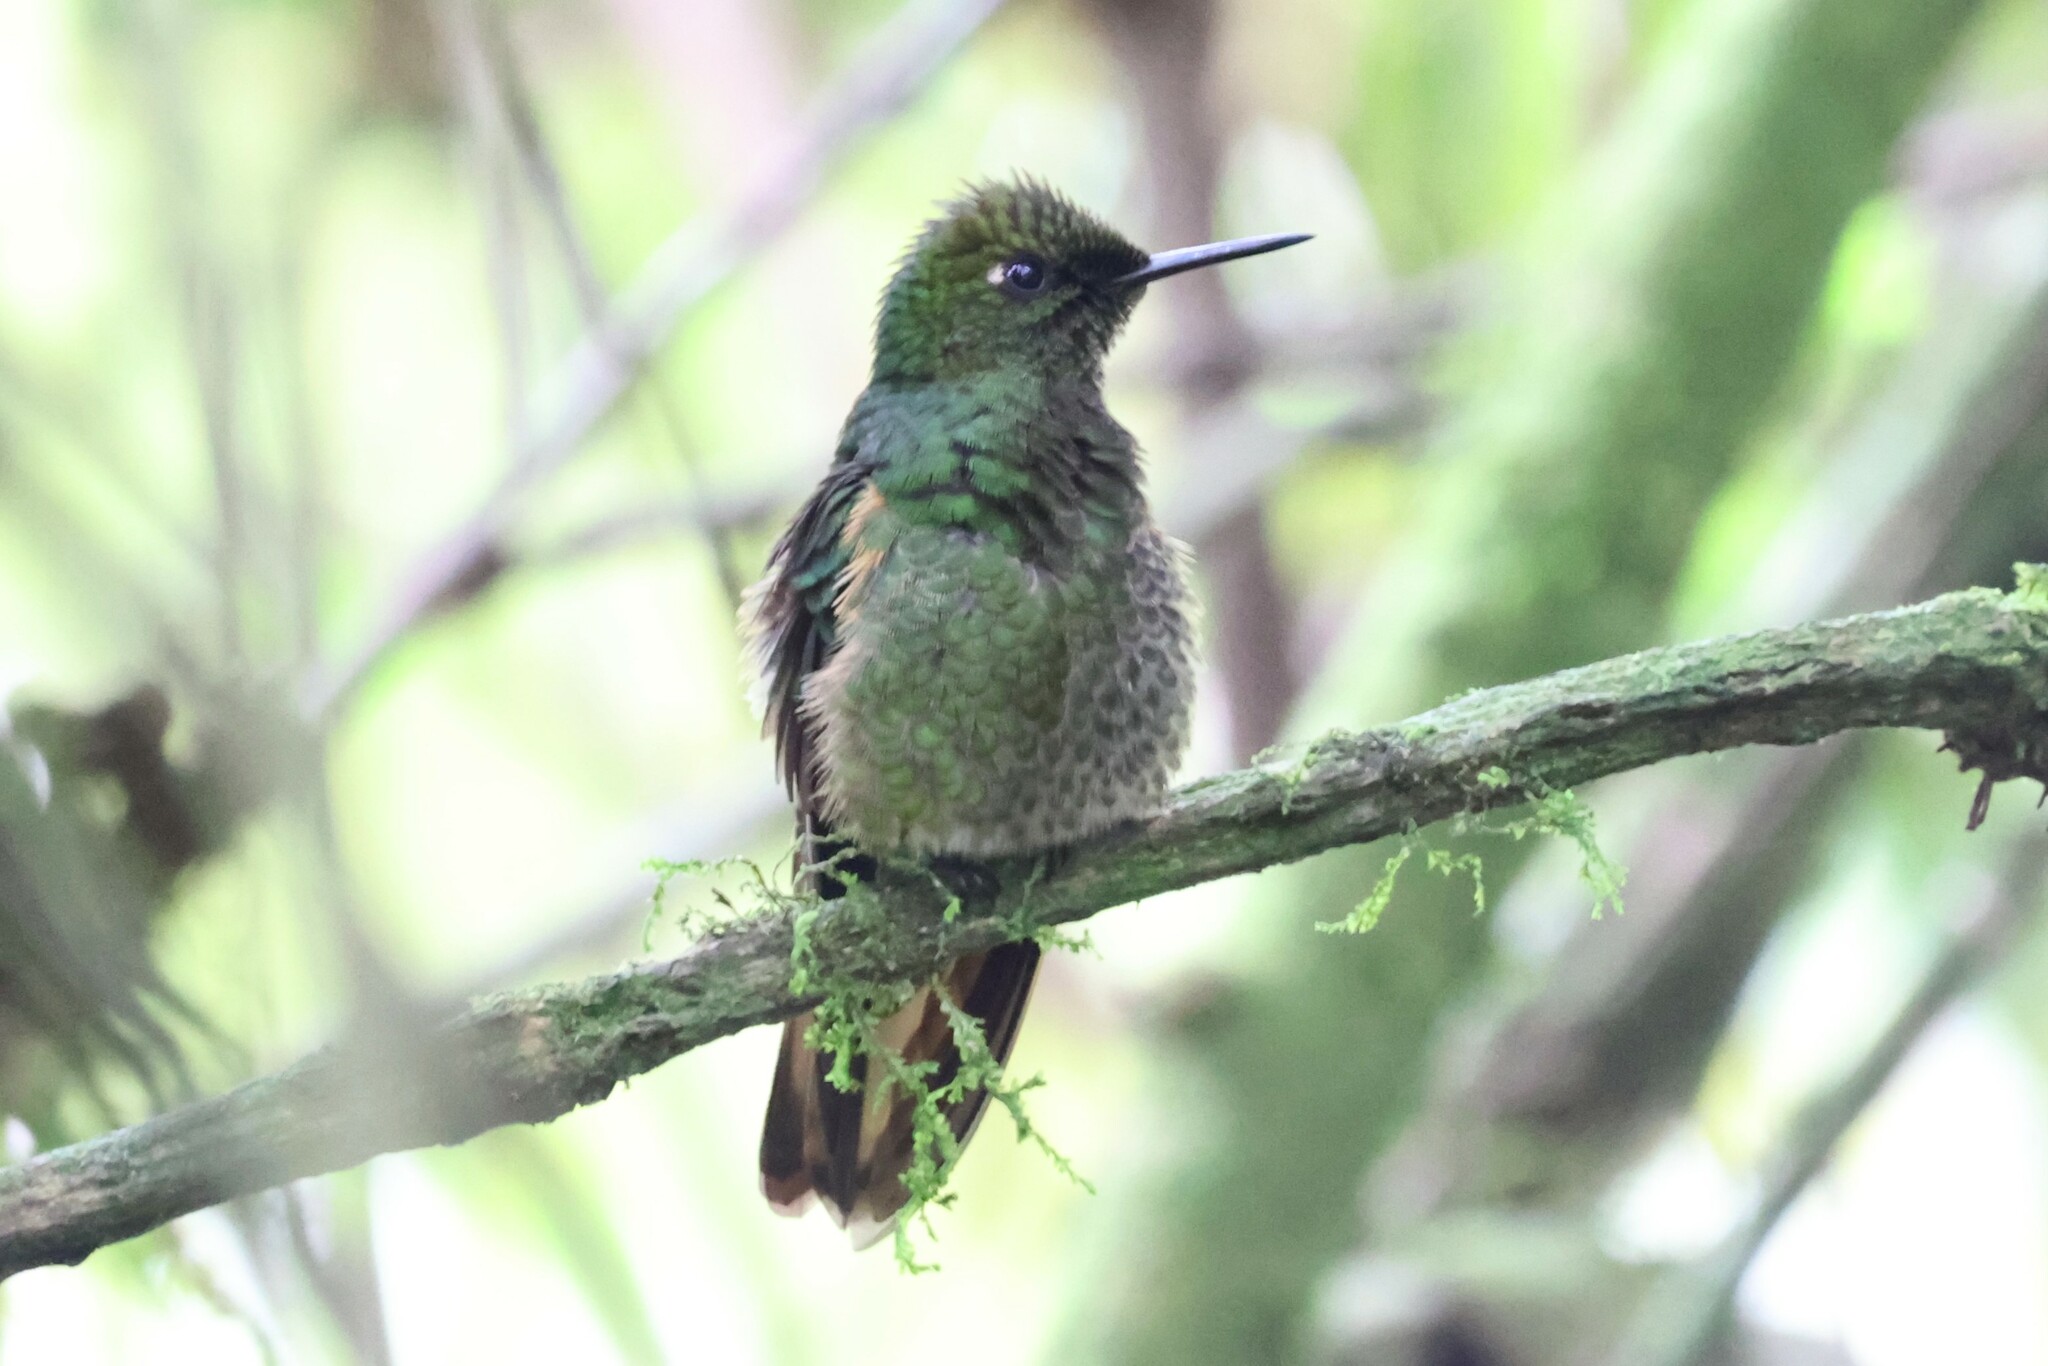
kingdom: Animalia
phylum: Chordata
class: Aves
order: Apodiformes
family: Trochilidae
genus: Boissonneaua
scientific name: Boissonneaua flavescens
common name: Buff-tailed coronet
